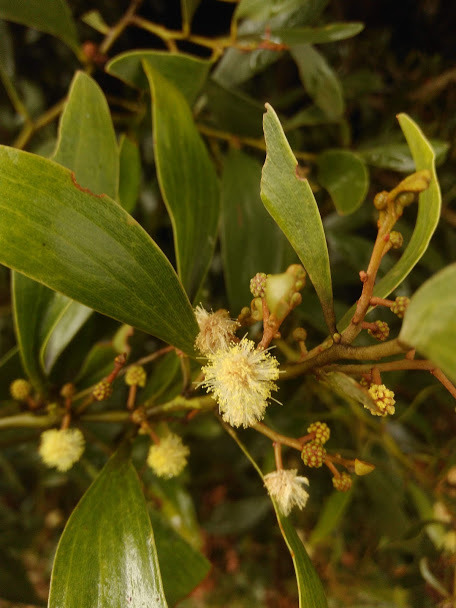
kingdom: Plantae
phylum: Tracheophyta
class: Magnoliopsida
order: Fabales
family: Fabaceae
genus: Acacia
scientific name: Acacia melanoxylon
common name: Blackwood
